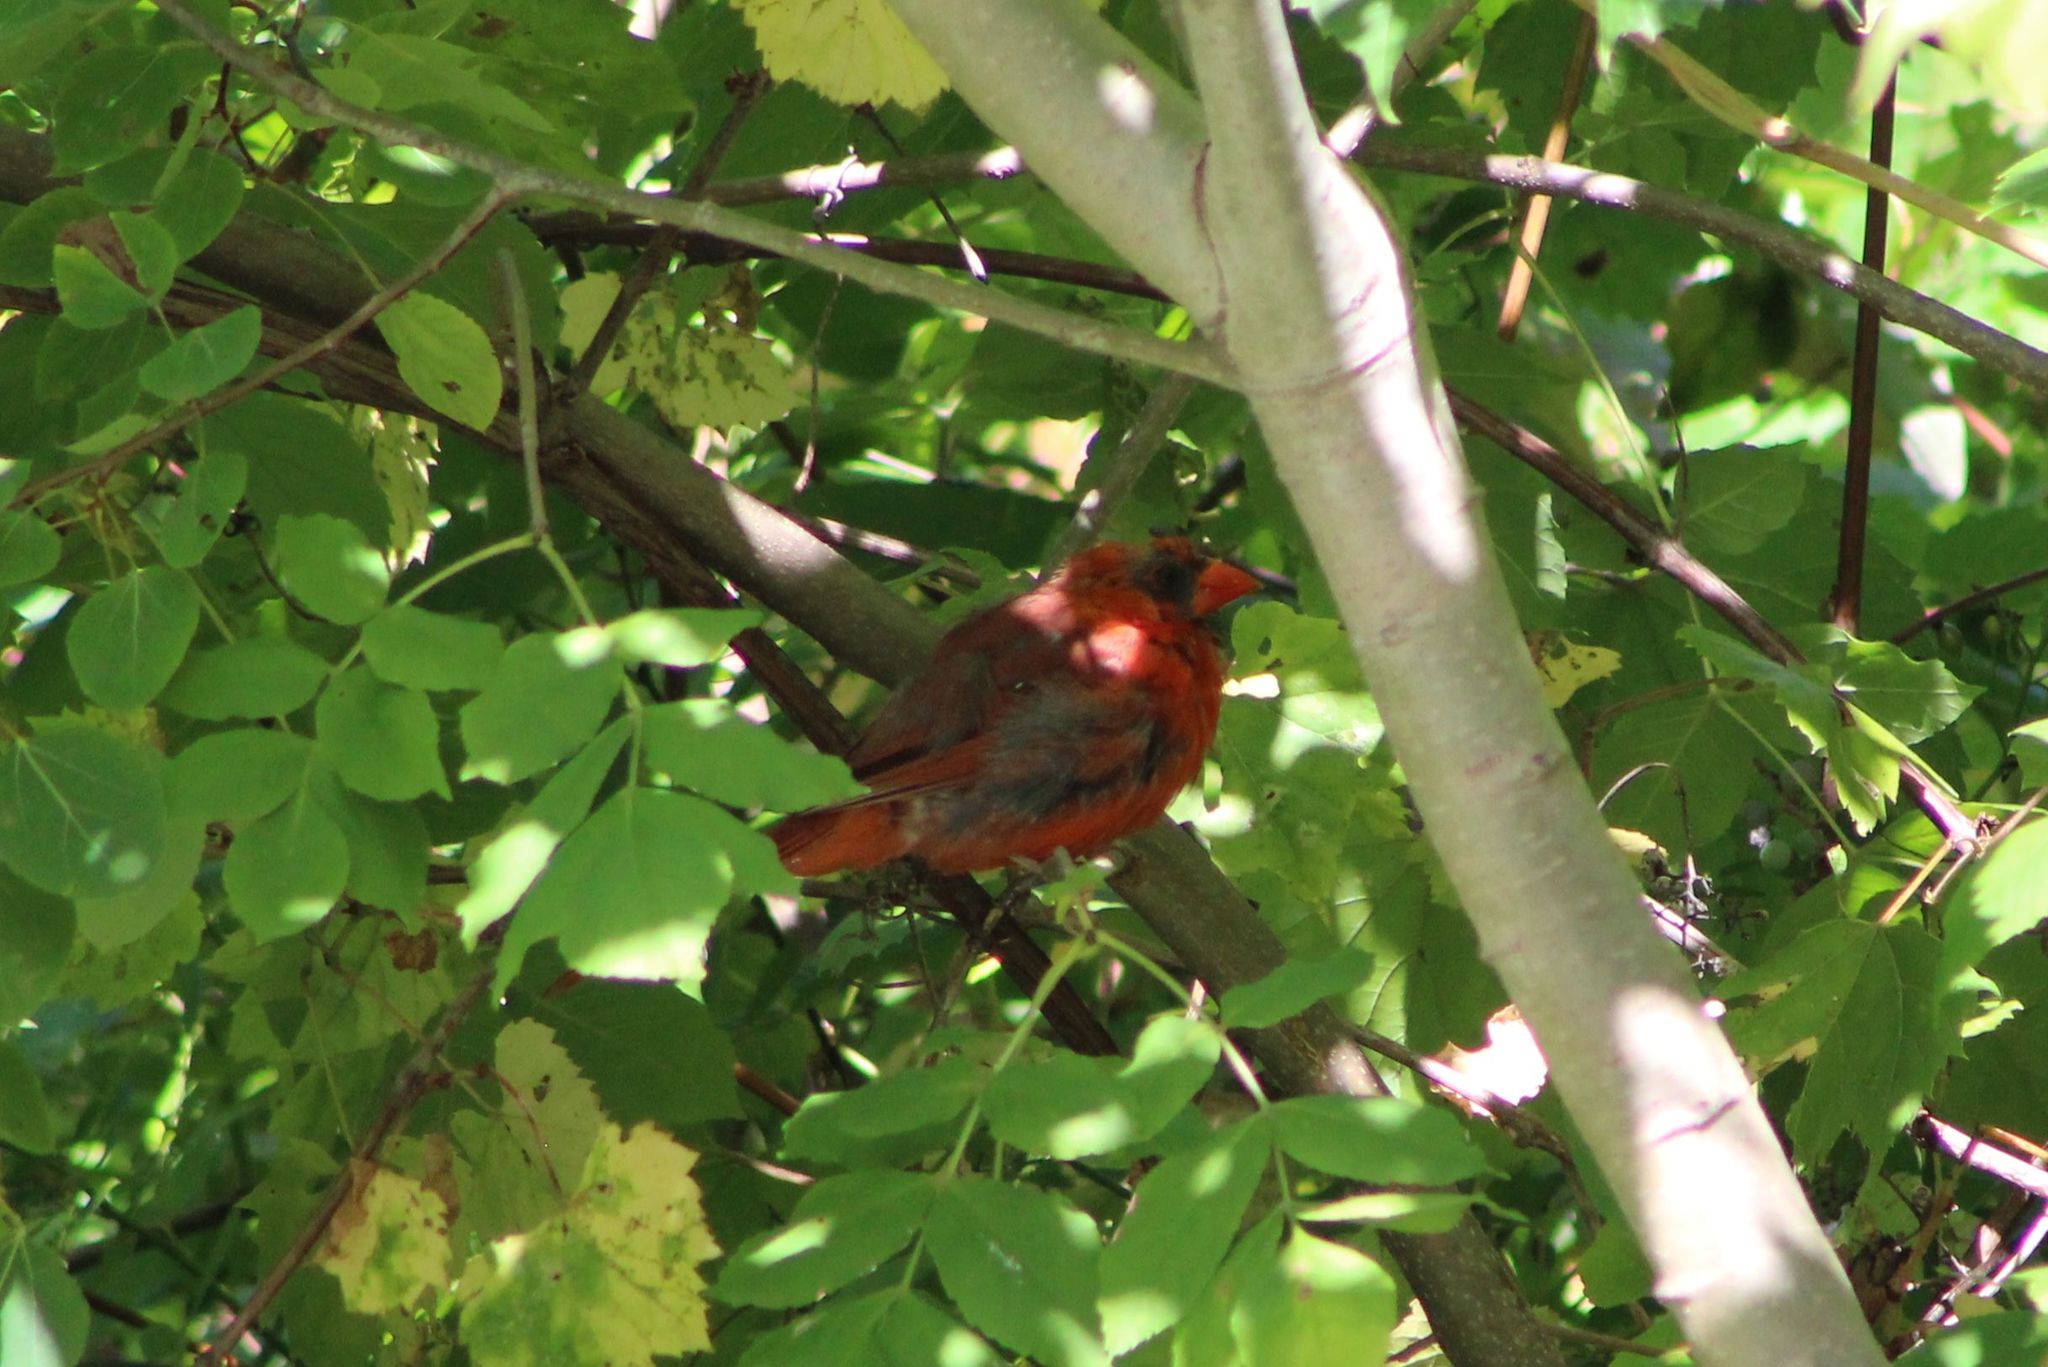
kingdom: Animalia
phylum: Chordata
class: Aves
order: Passeriformes
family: Cardinalidae
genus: Cardinalis
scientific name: Cardinalis cardinalis
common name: Northern cardinal
